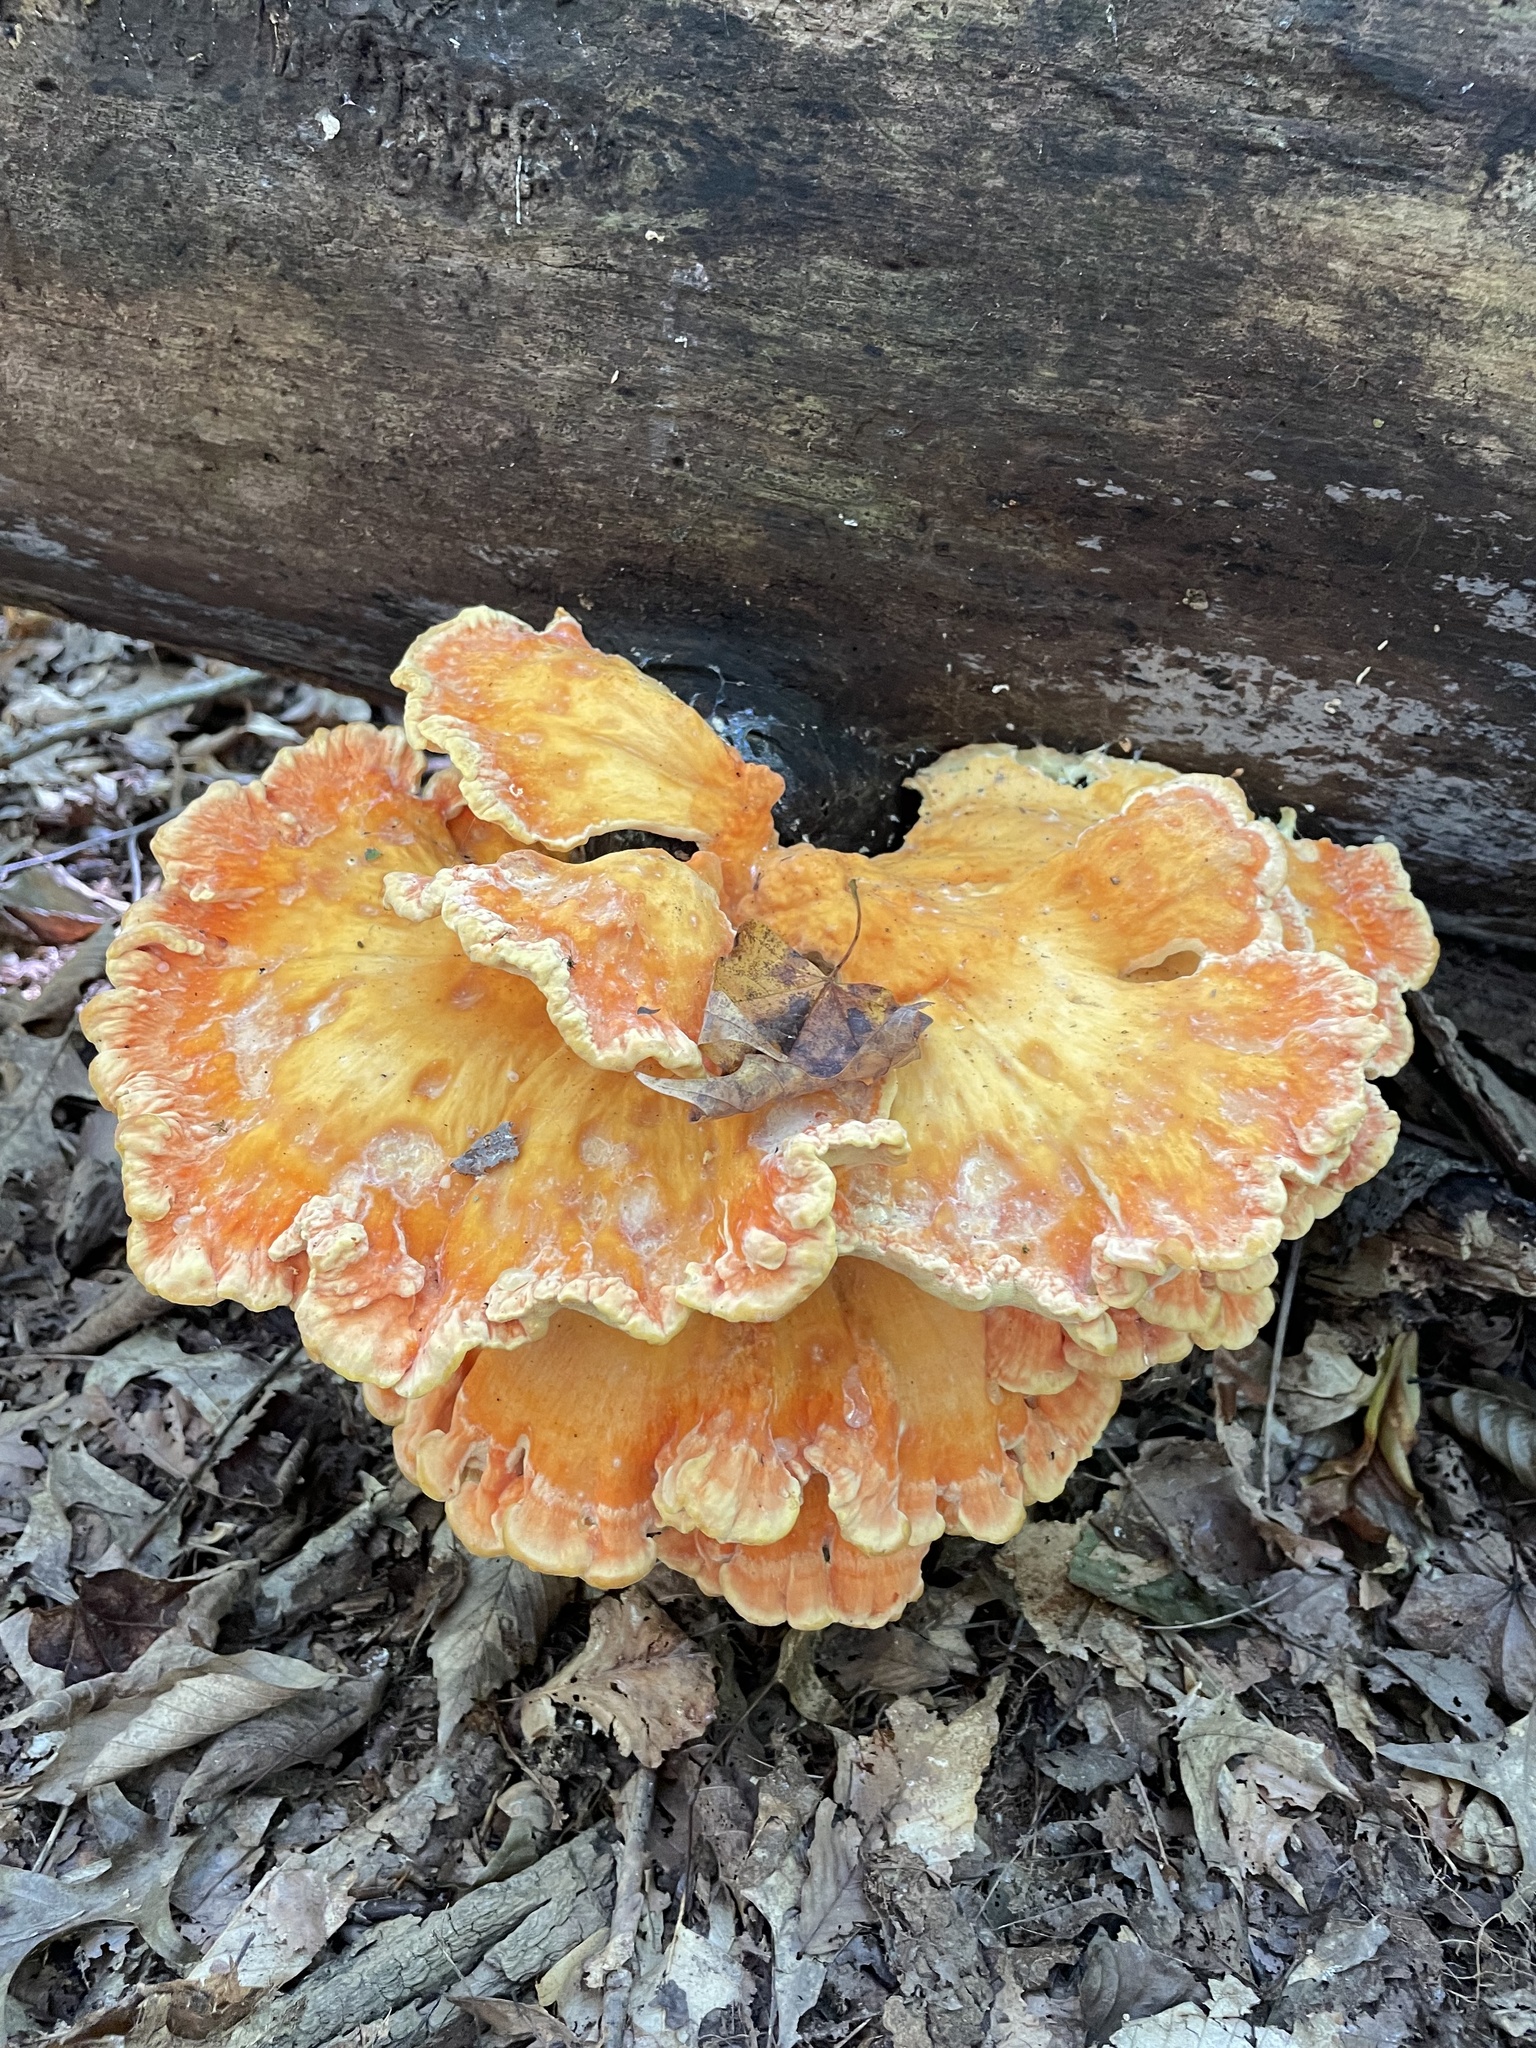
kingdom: Fungi
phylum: Basidiomycota
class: Agaricomycetes
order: Polyporales
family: Laetiporaceae
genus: Laetiporus
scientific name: Laetiporus sulphureus
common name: Chicken of the woods
